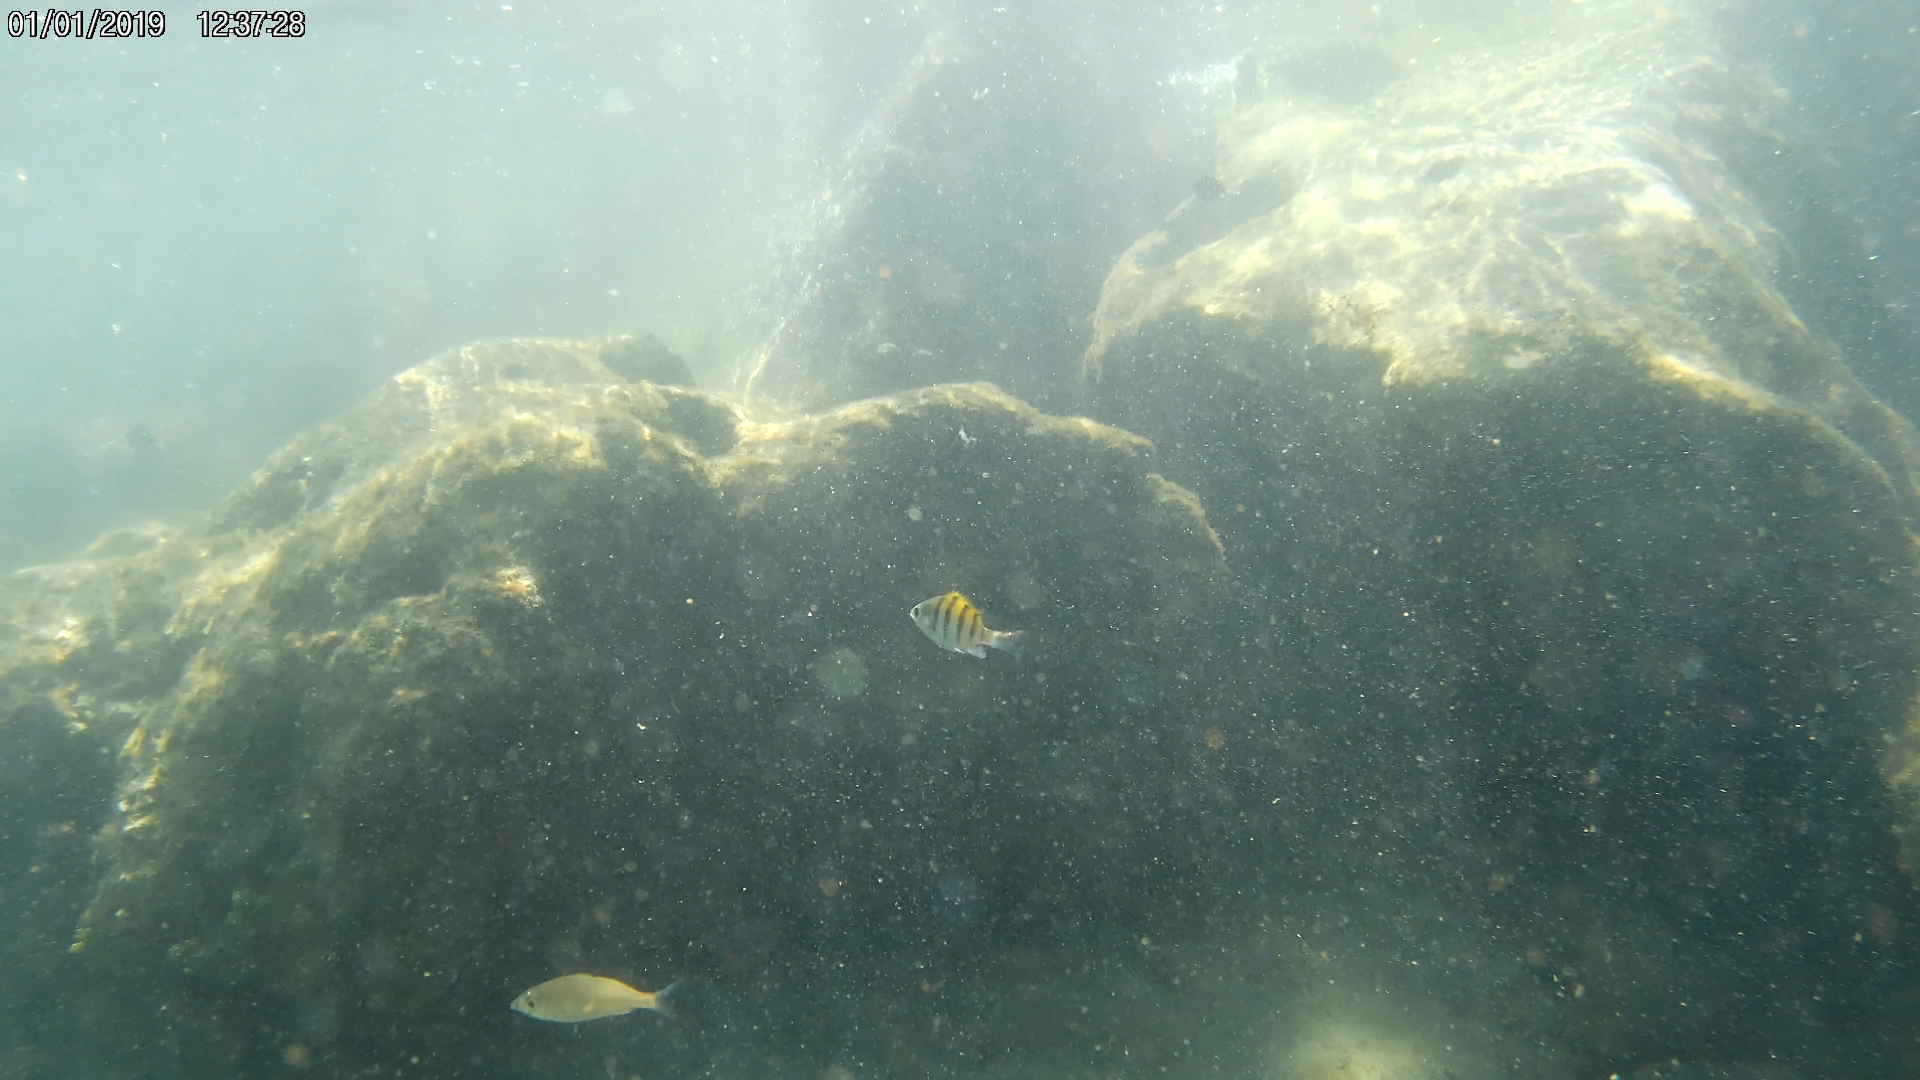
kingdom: Animalia
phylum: Chordata
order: Perciformes
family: Pomacentridae
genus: Abudefduf
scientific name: Abudefduf saxatilis
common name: Sergeant major
